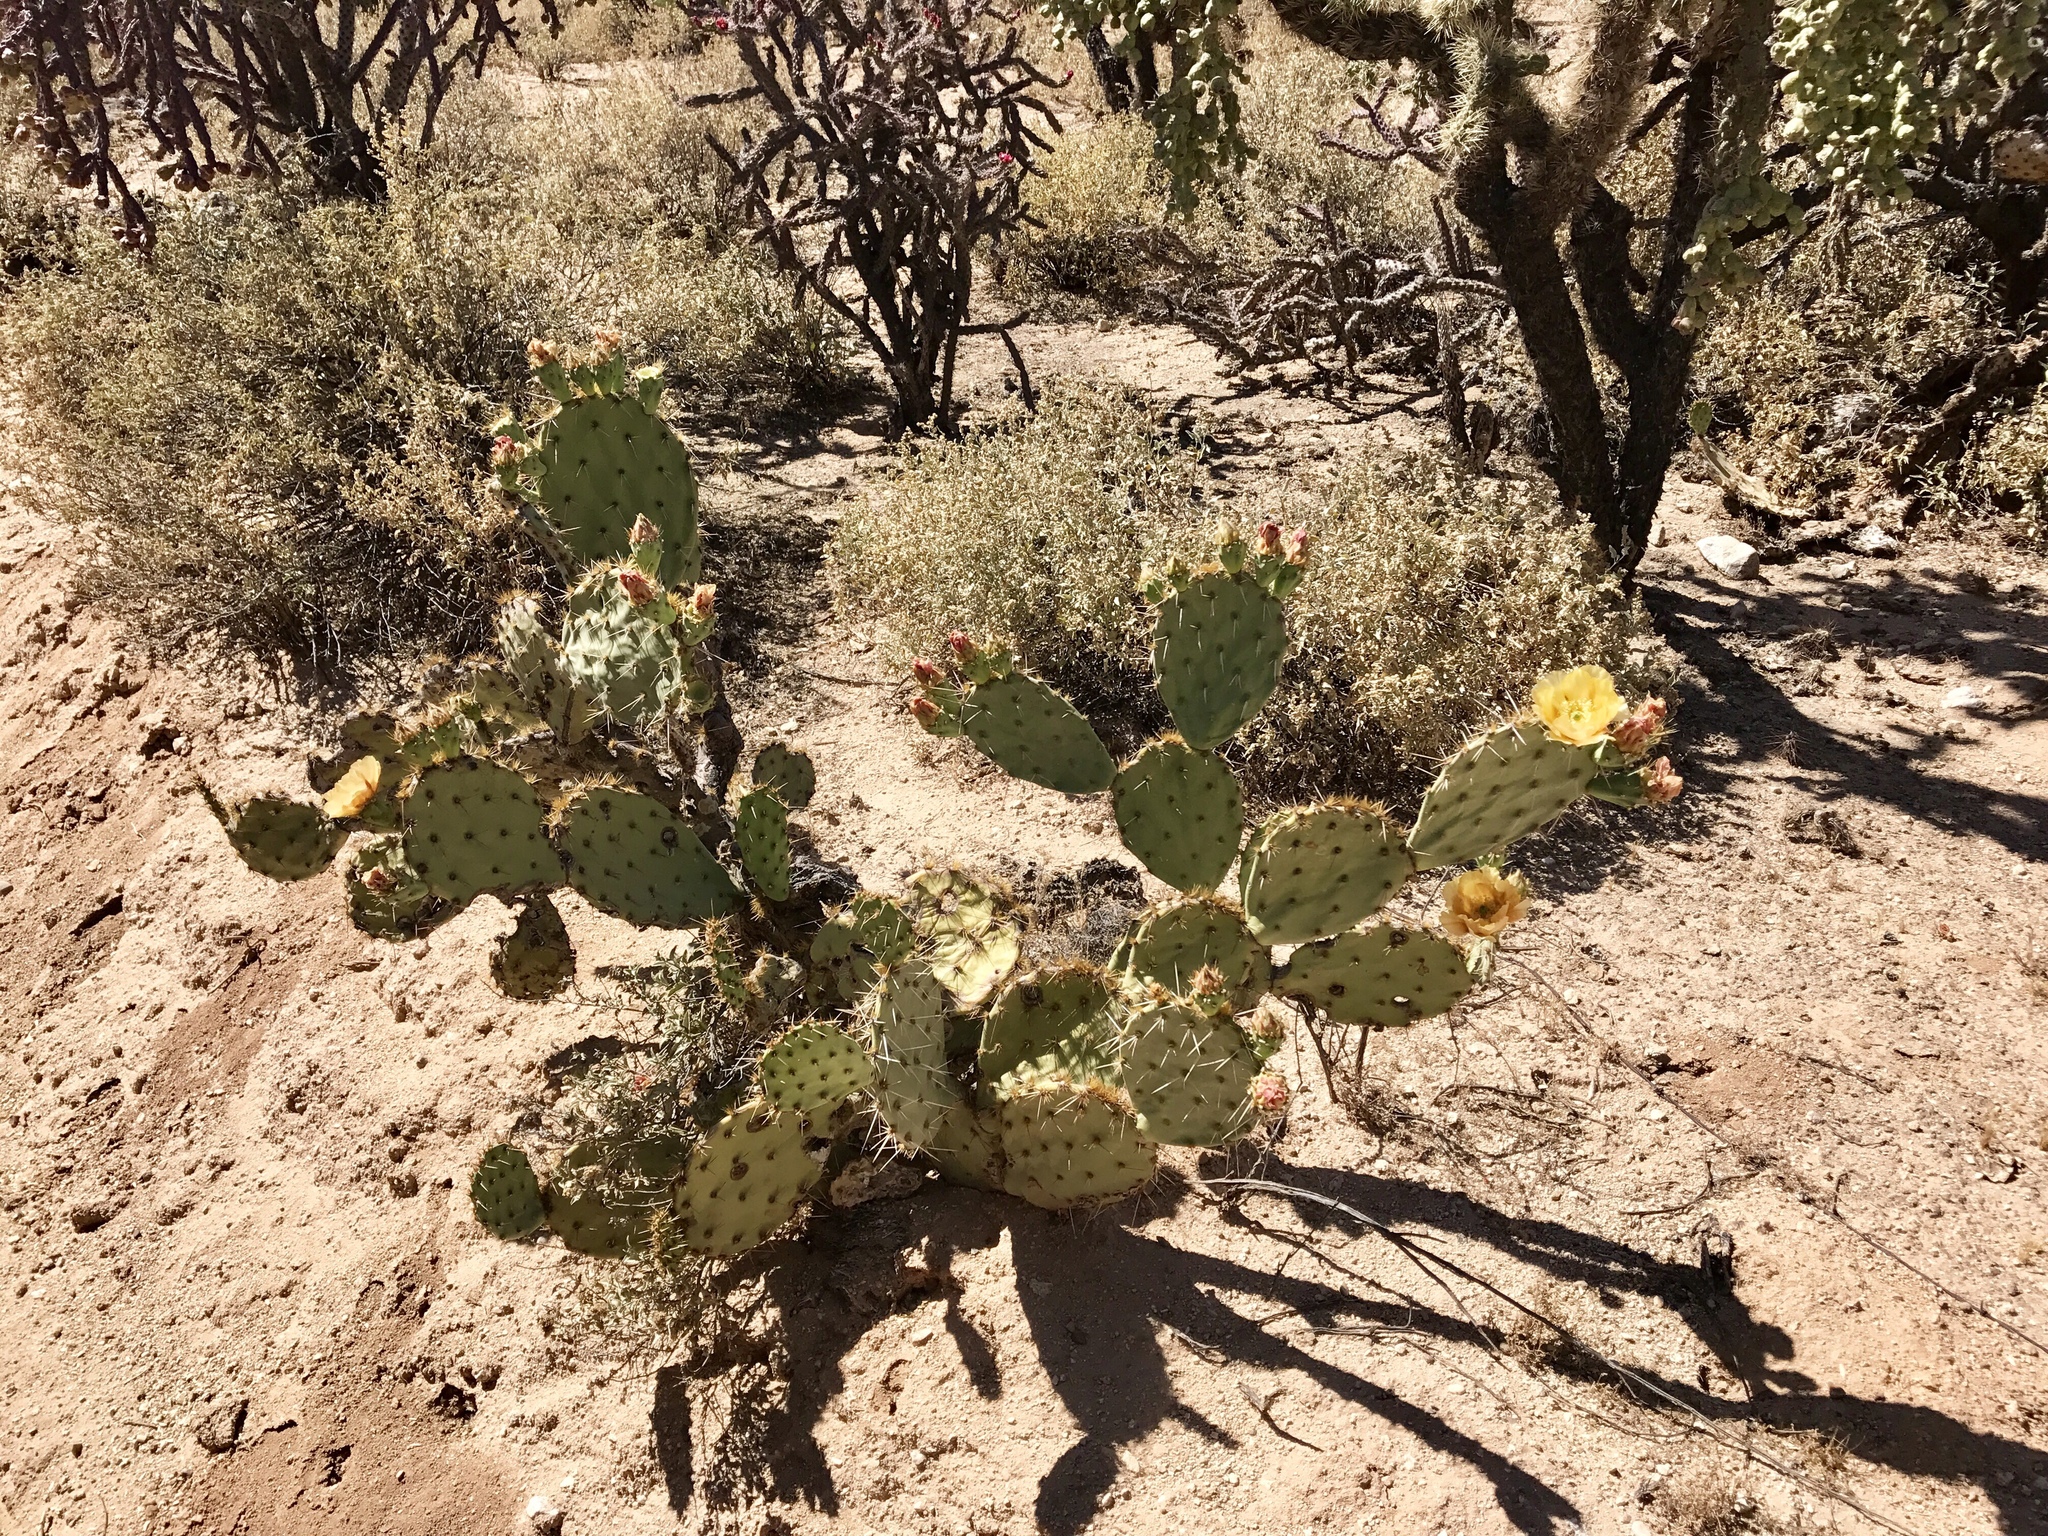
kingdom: Plantae
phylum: Tracheophyta
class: Magnoliopsida
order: Caryophyllales
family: Cactaceae
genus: Opuntia
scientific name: Opuntia engelmannii
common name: Cactus-apple
